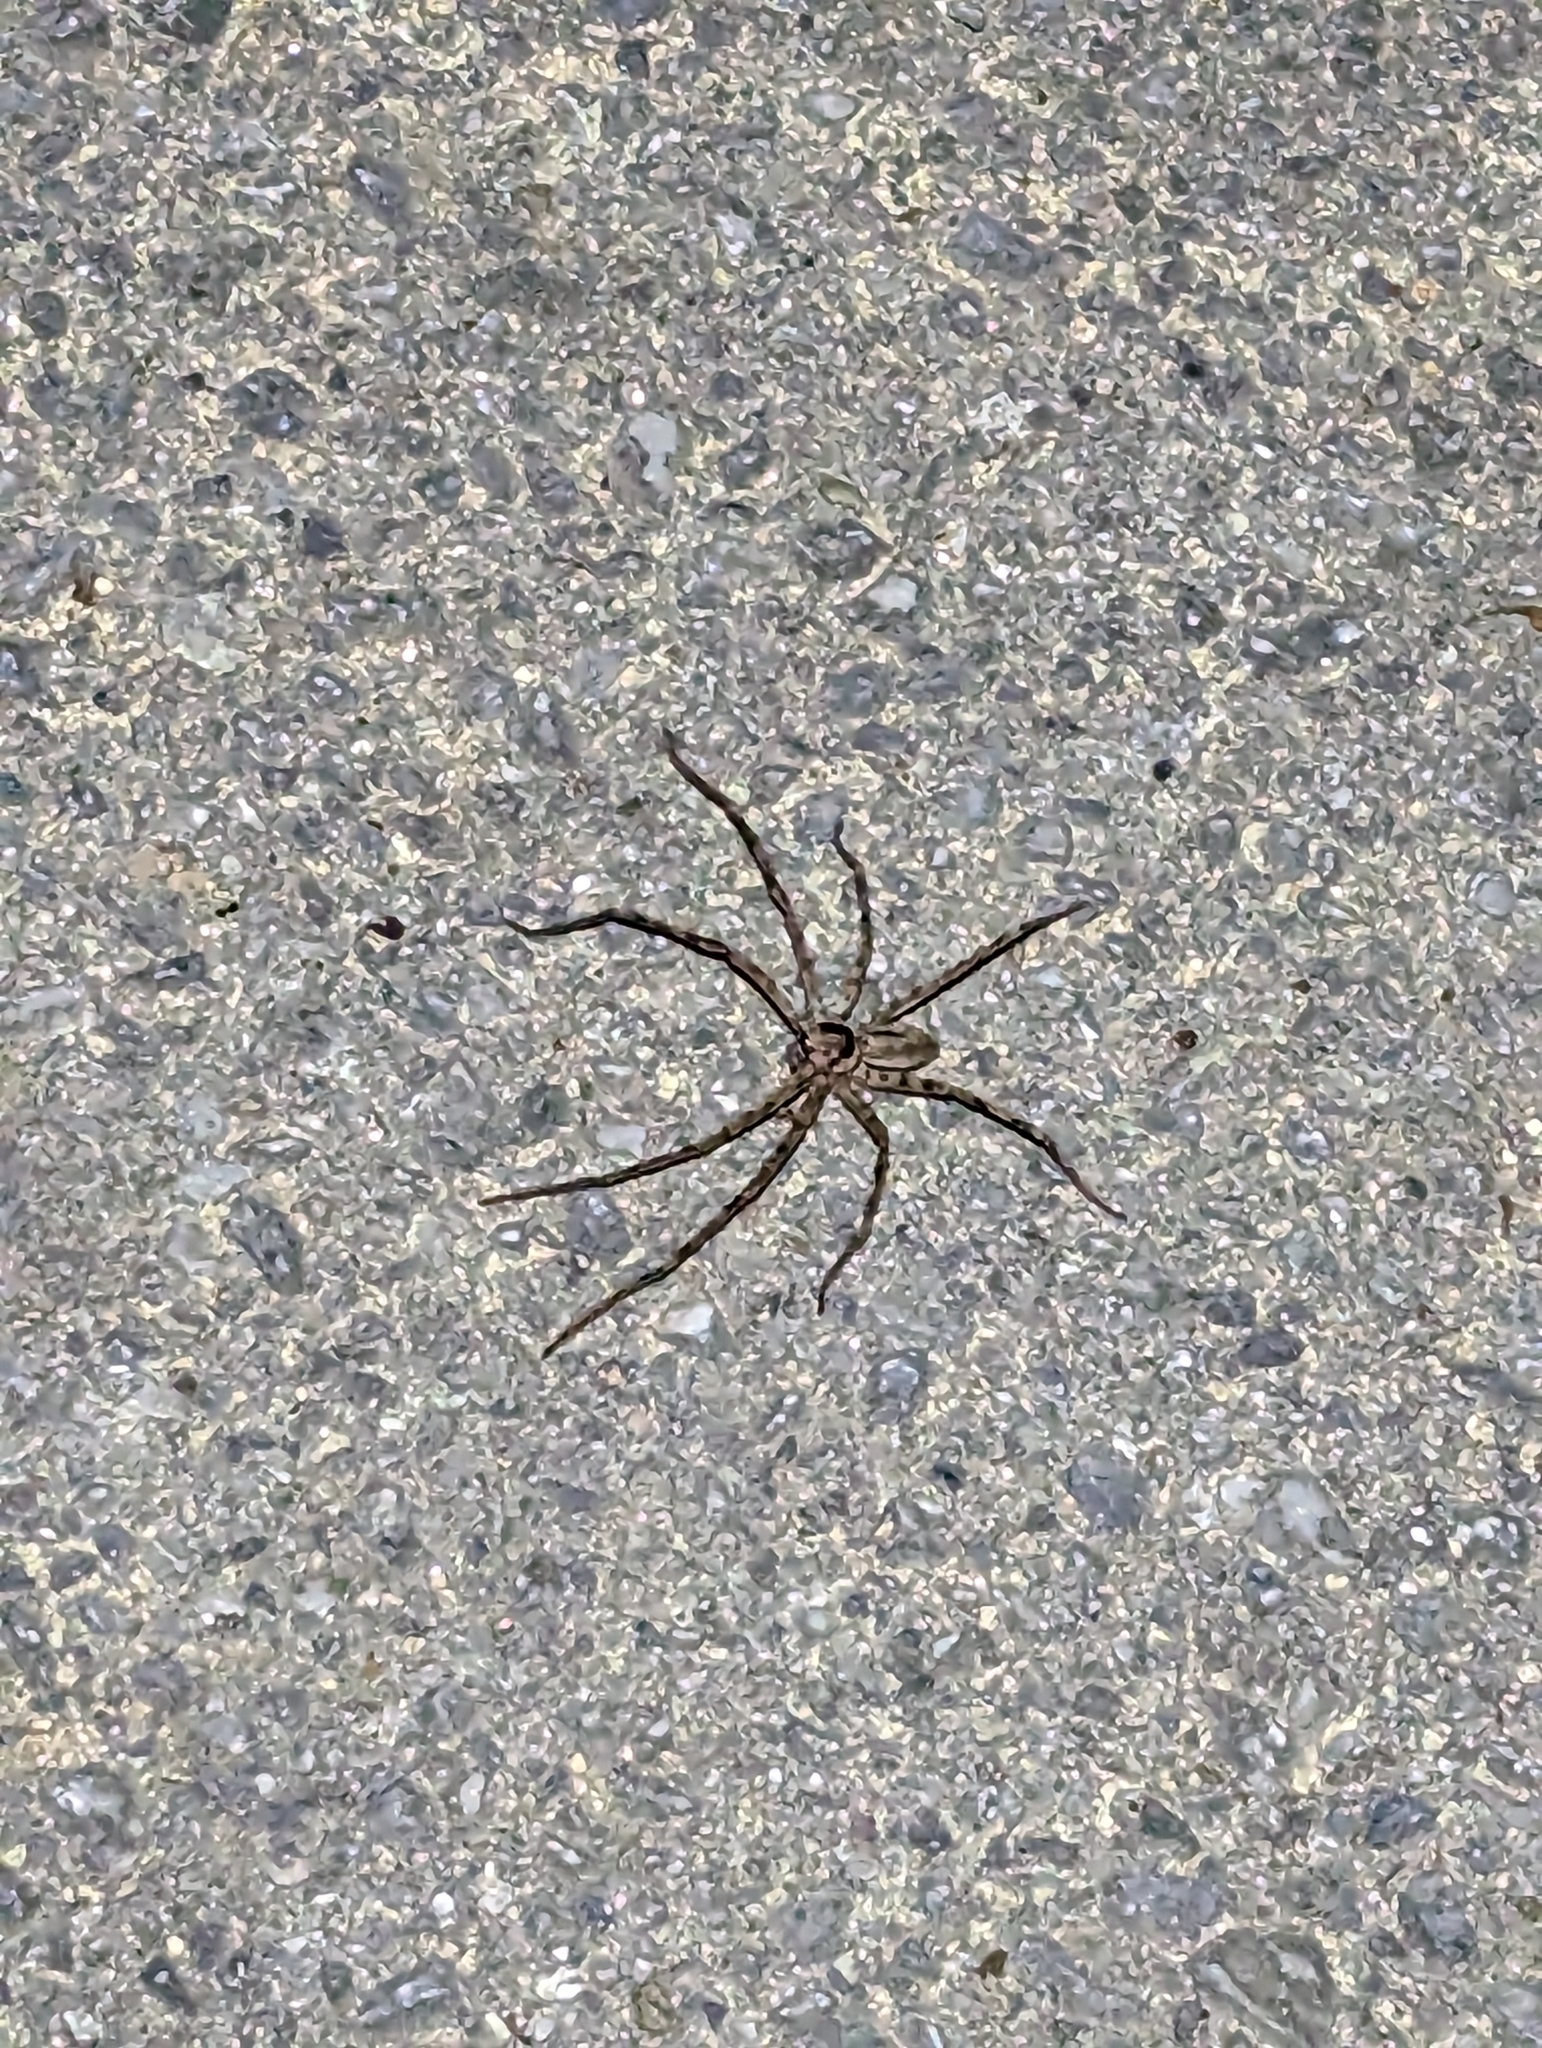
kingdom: Animalia
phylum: Arthropoda
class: Arachnida
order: Araneae
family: Sparassidae
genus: Heteropoda
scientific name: Heteropoda venatoria
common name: Huntsman spider
